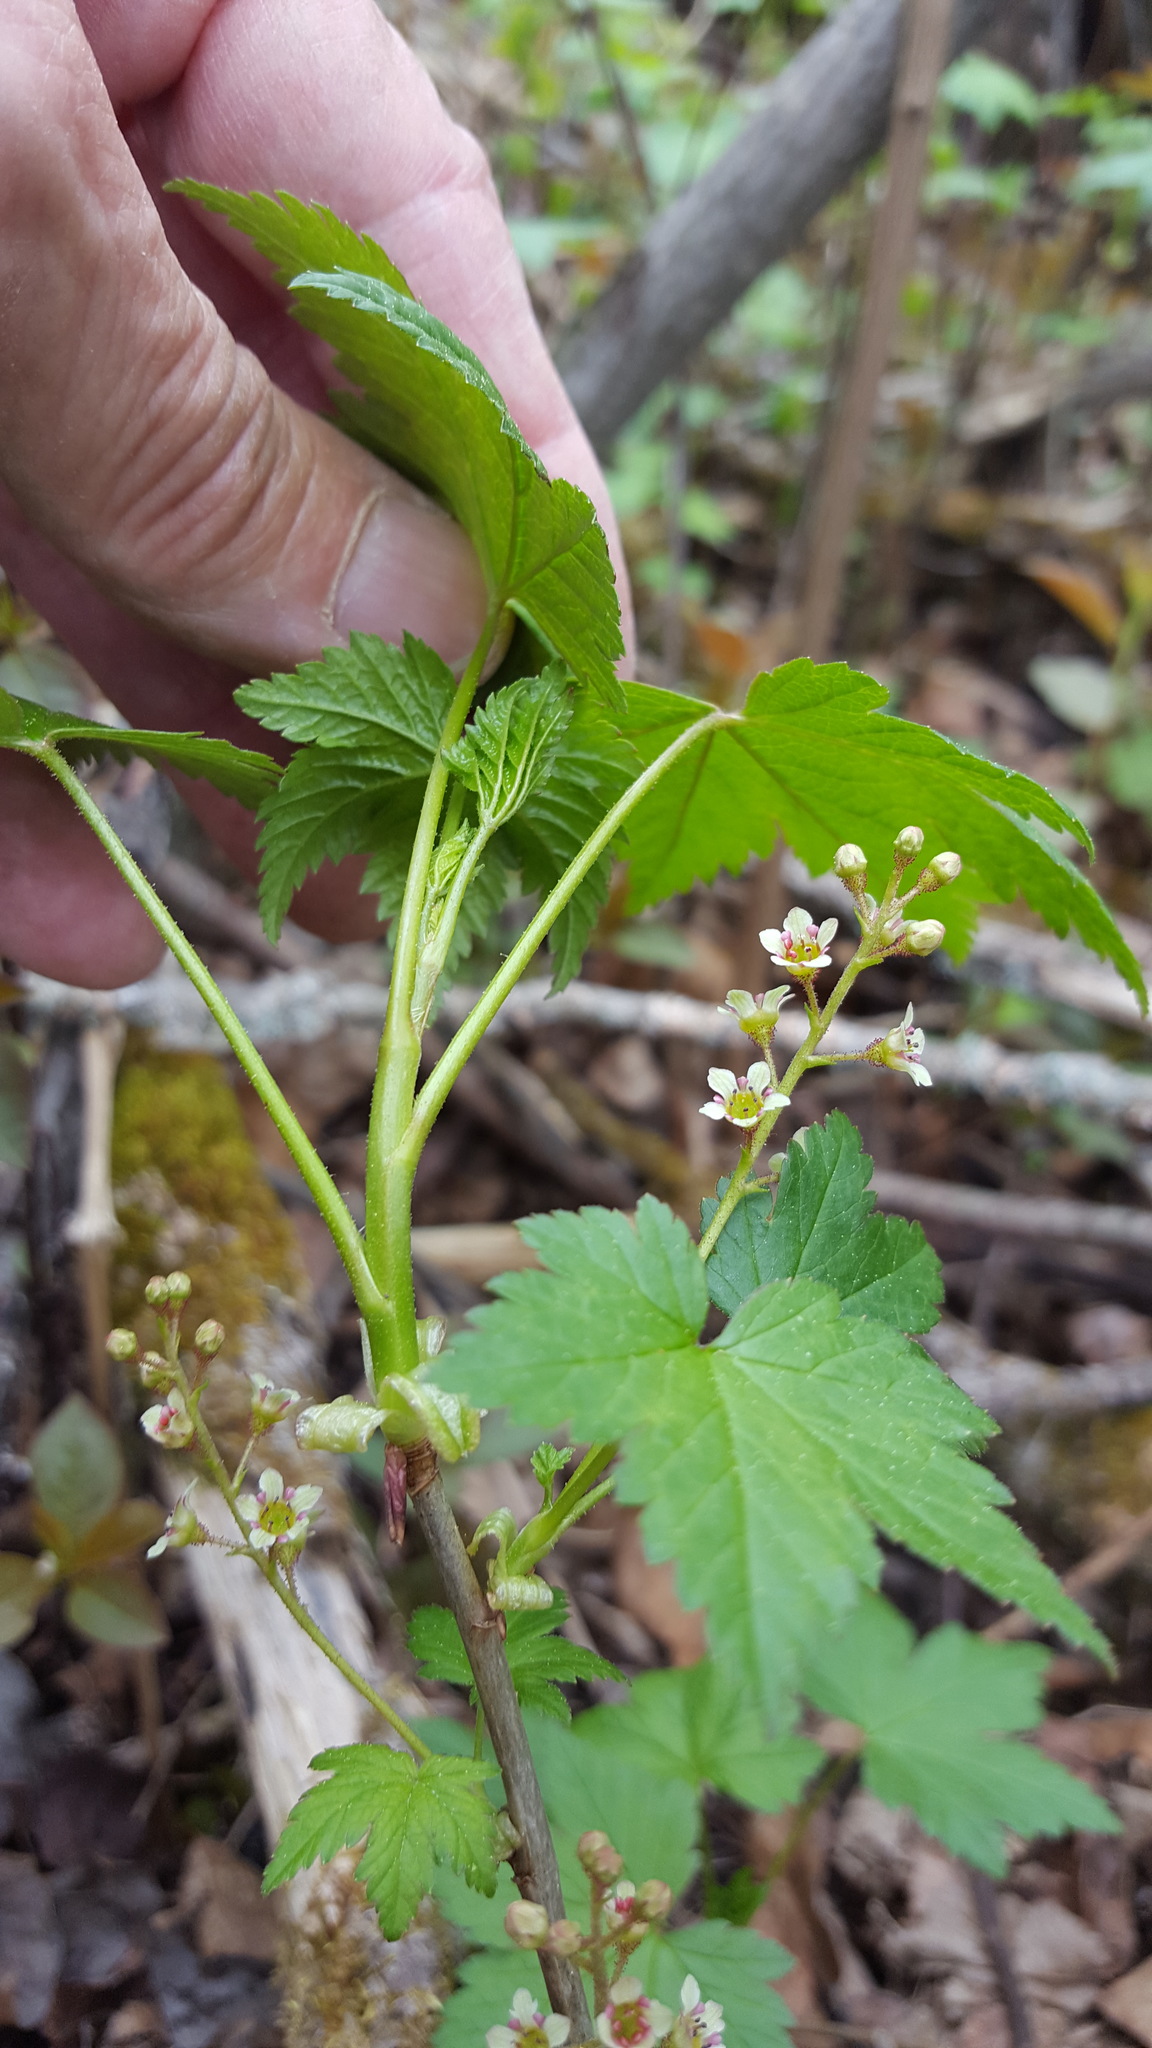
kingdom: Plantae
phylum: Tracheophyta
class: Magnoliopsida
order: Saxifragales
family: Grossulariaceae
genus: Ribes
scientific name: Ribes glandulosum
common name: Skunk currant
